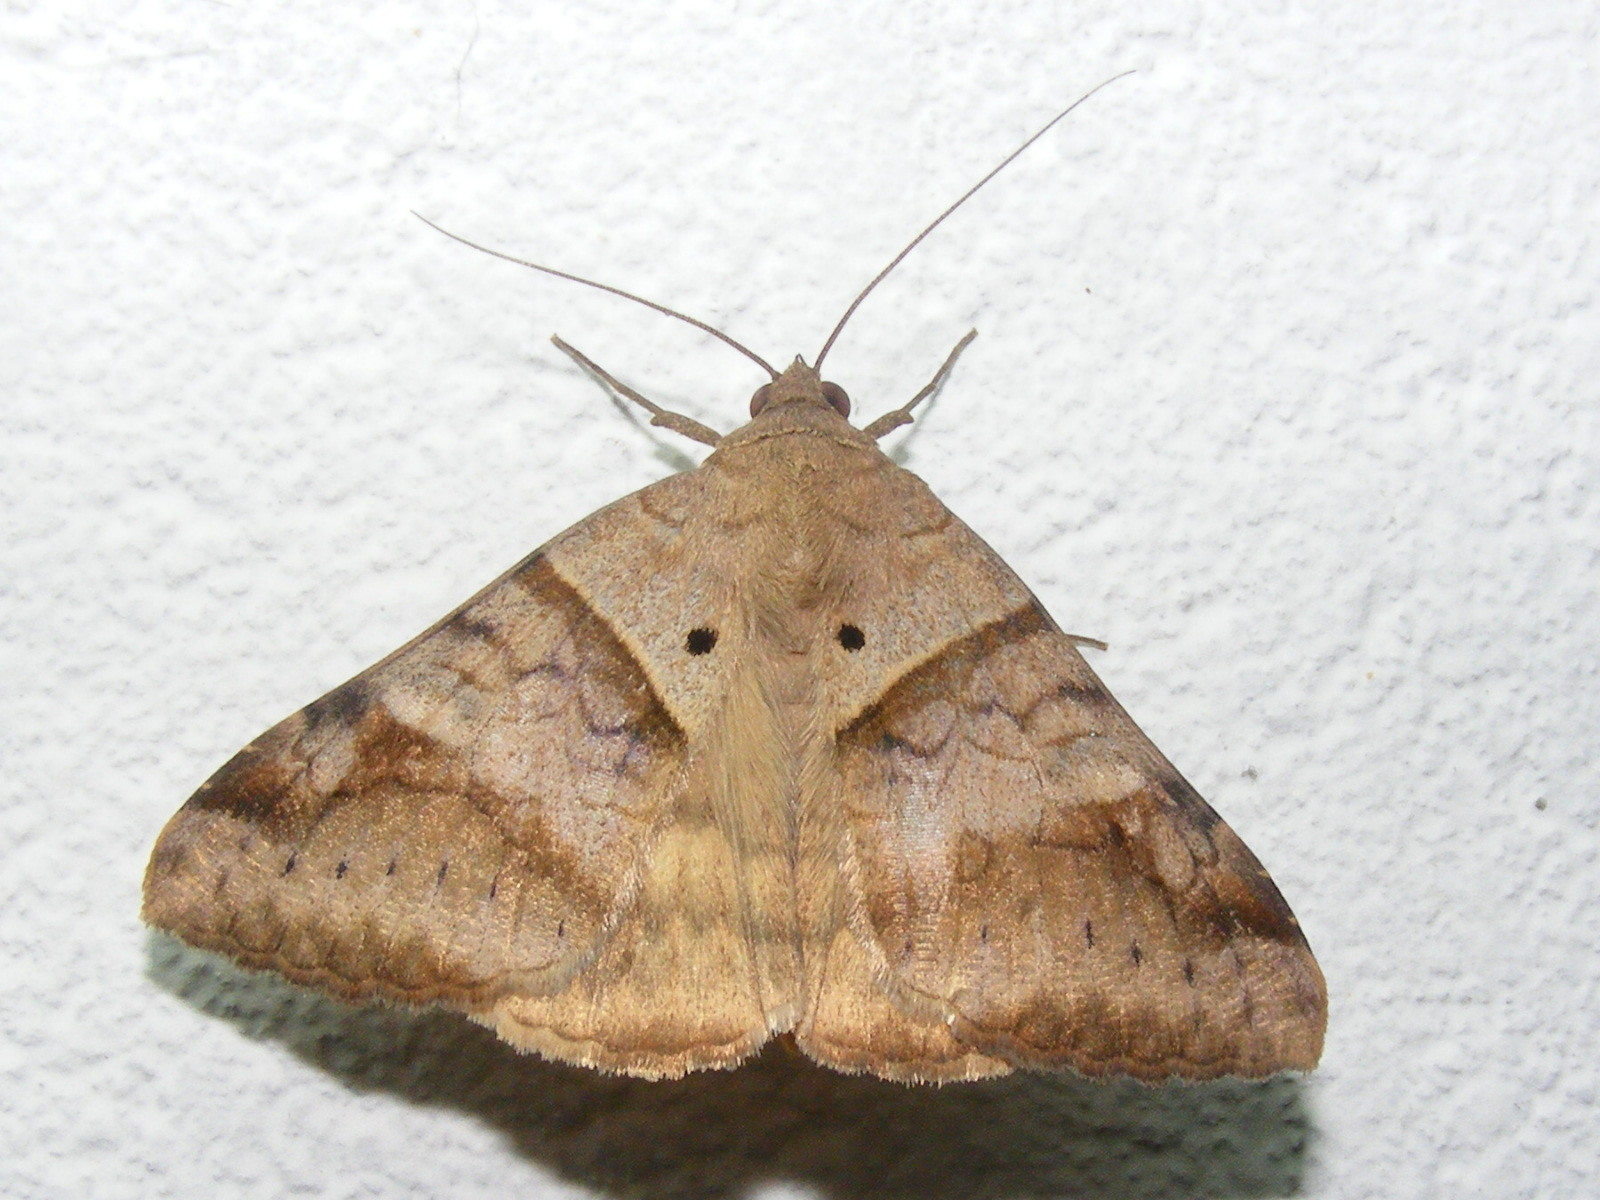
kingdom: Animalia
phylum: Arthropoda
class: Insecta
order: Lepidoptera
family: Erebidae
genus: Mocis
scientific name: Mocis undata
